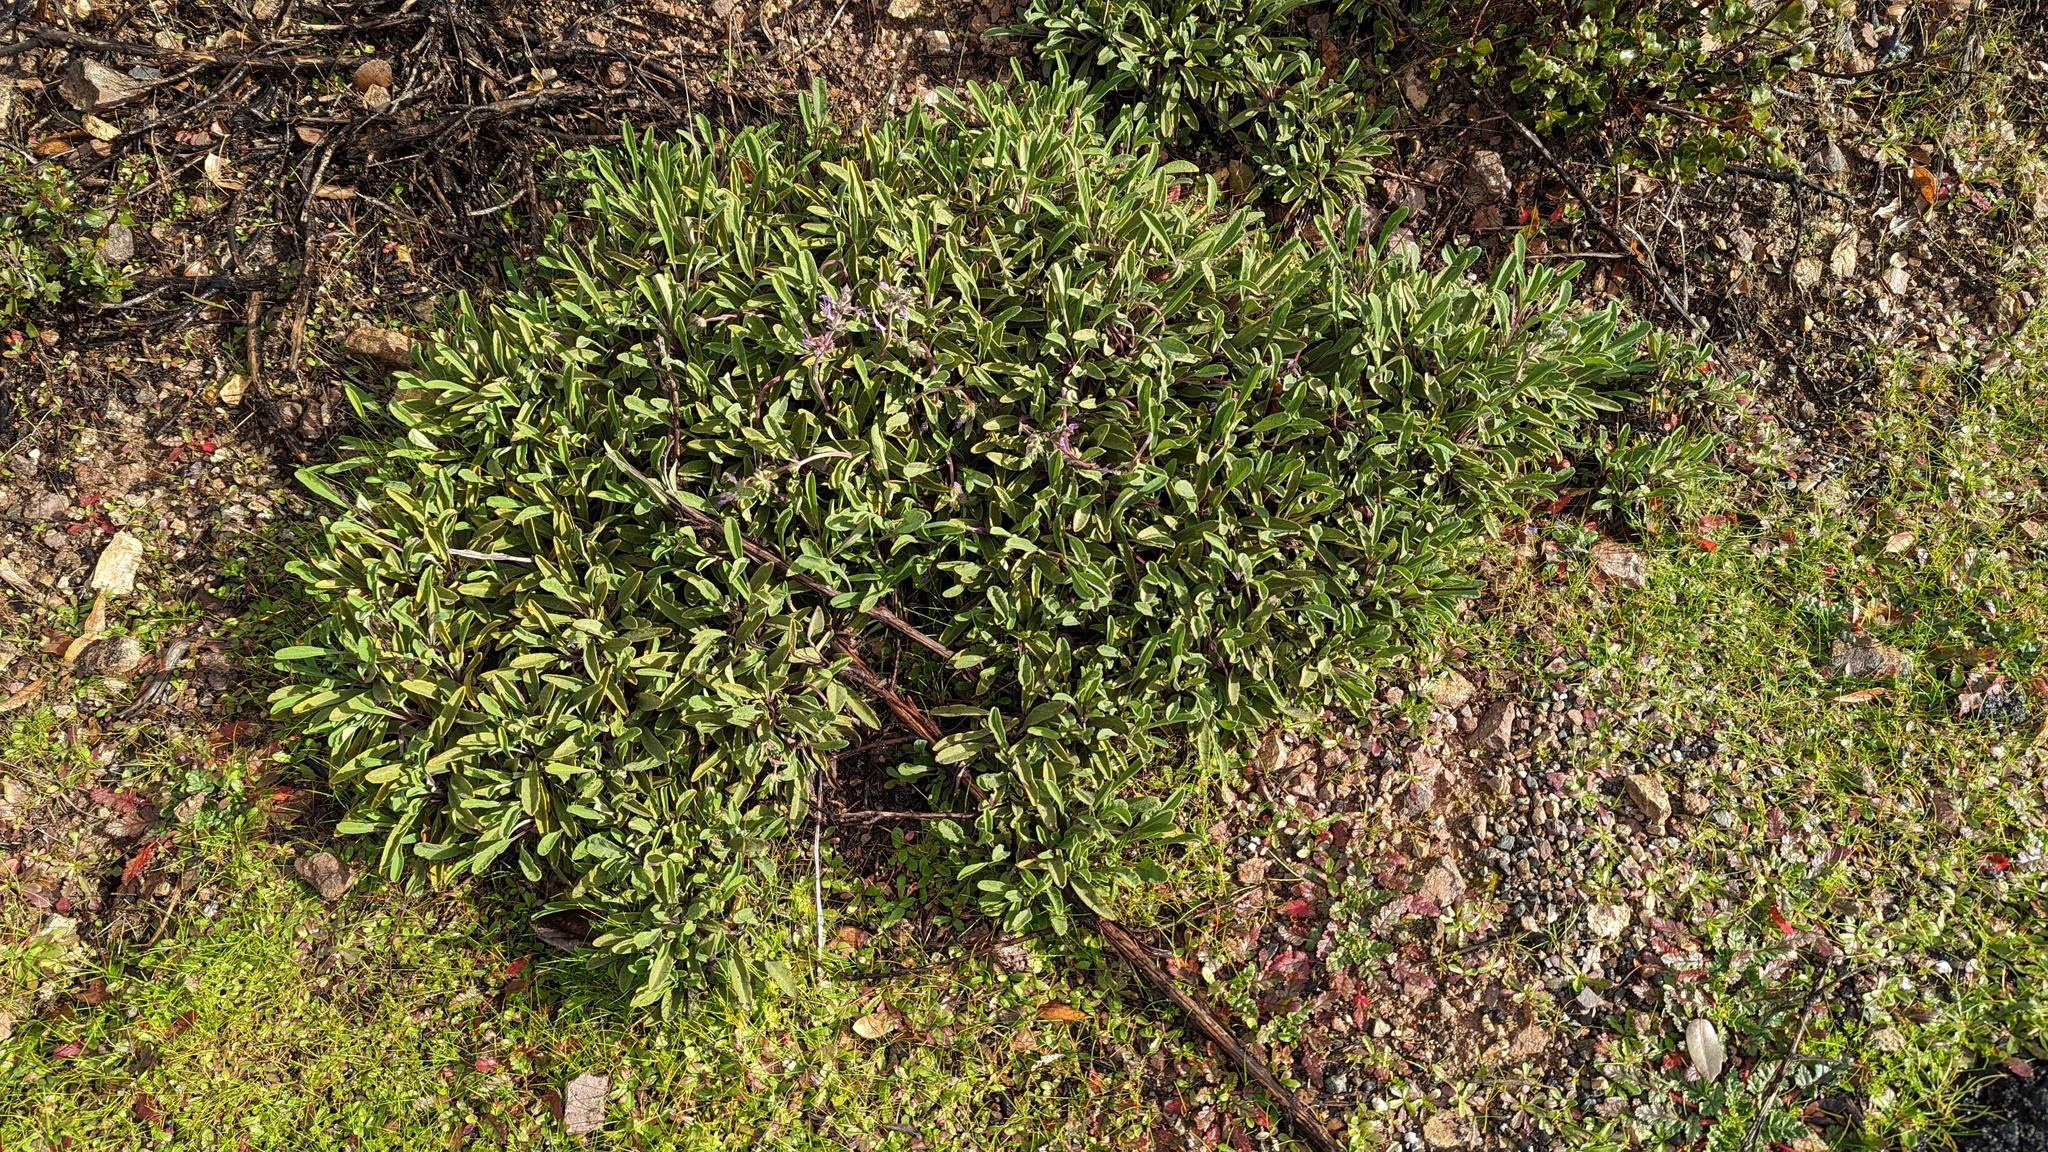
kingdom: Plantae
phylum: Tracheophyta
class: Magnoliopsida
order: Lamiales
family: Lamiaceae
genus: Salvia
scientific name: Salvia sonomensis
